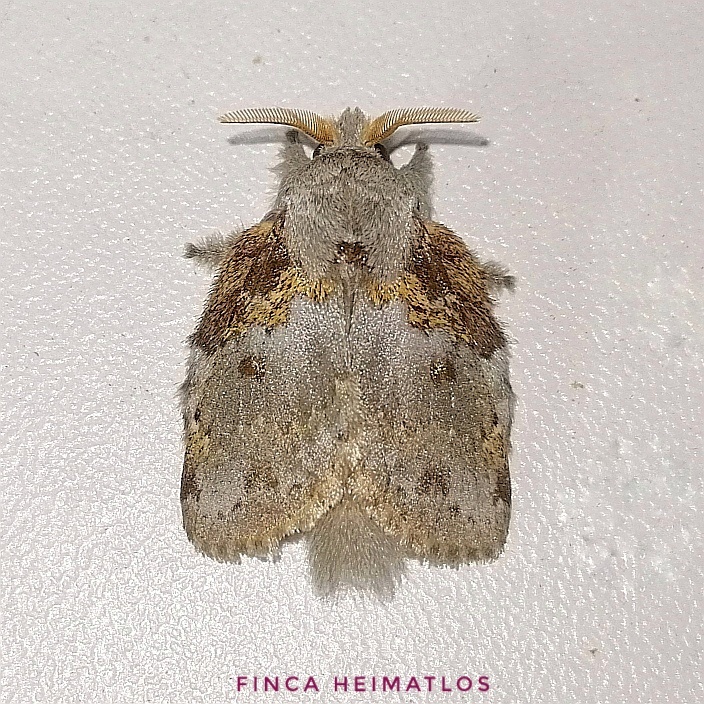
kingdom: Animalia
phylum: Arthropoda
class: Insecta
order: Lepidoptera
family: Lasiocampidae
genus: Euglyphis
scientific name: Euglyphis deusta
